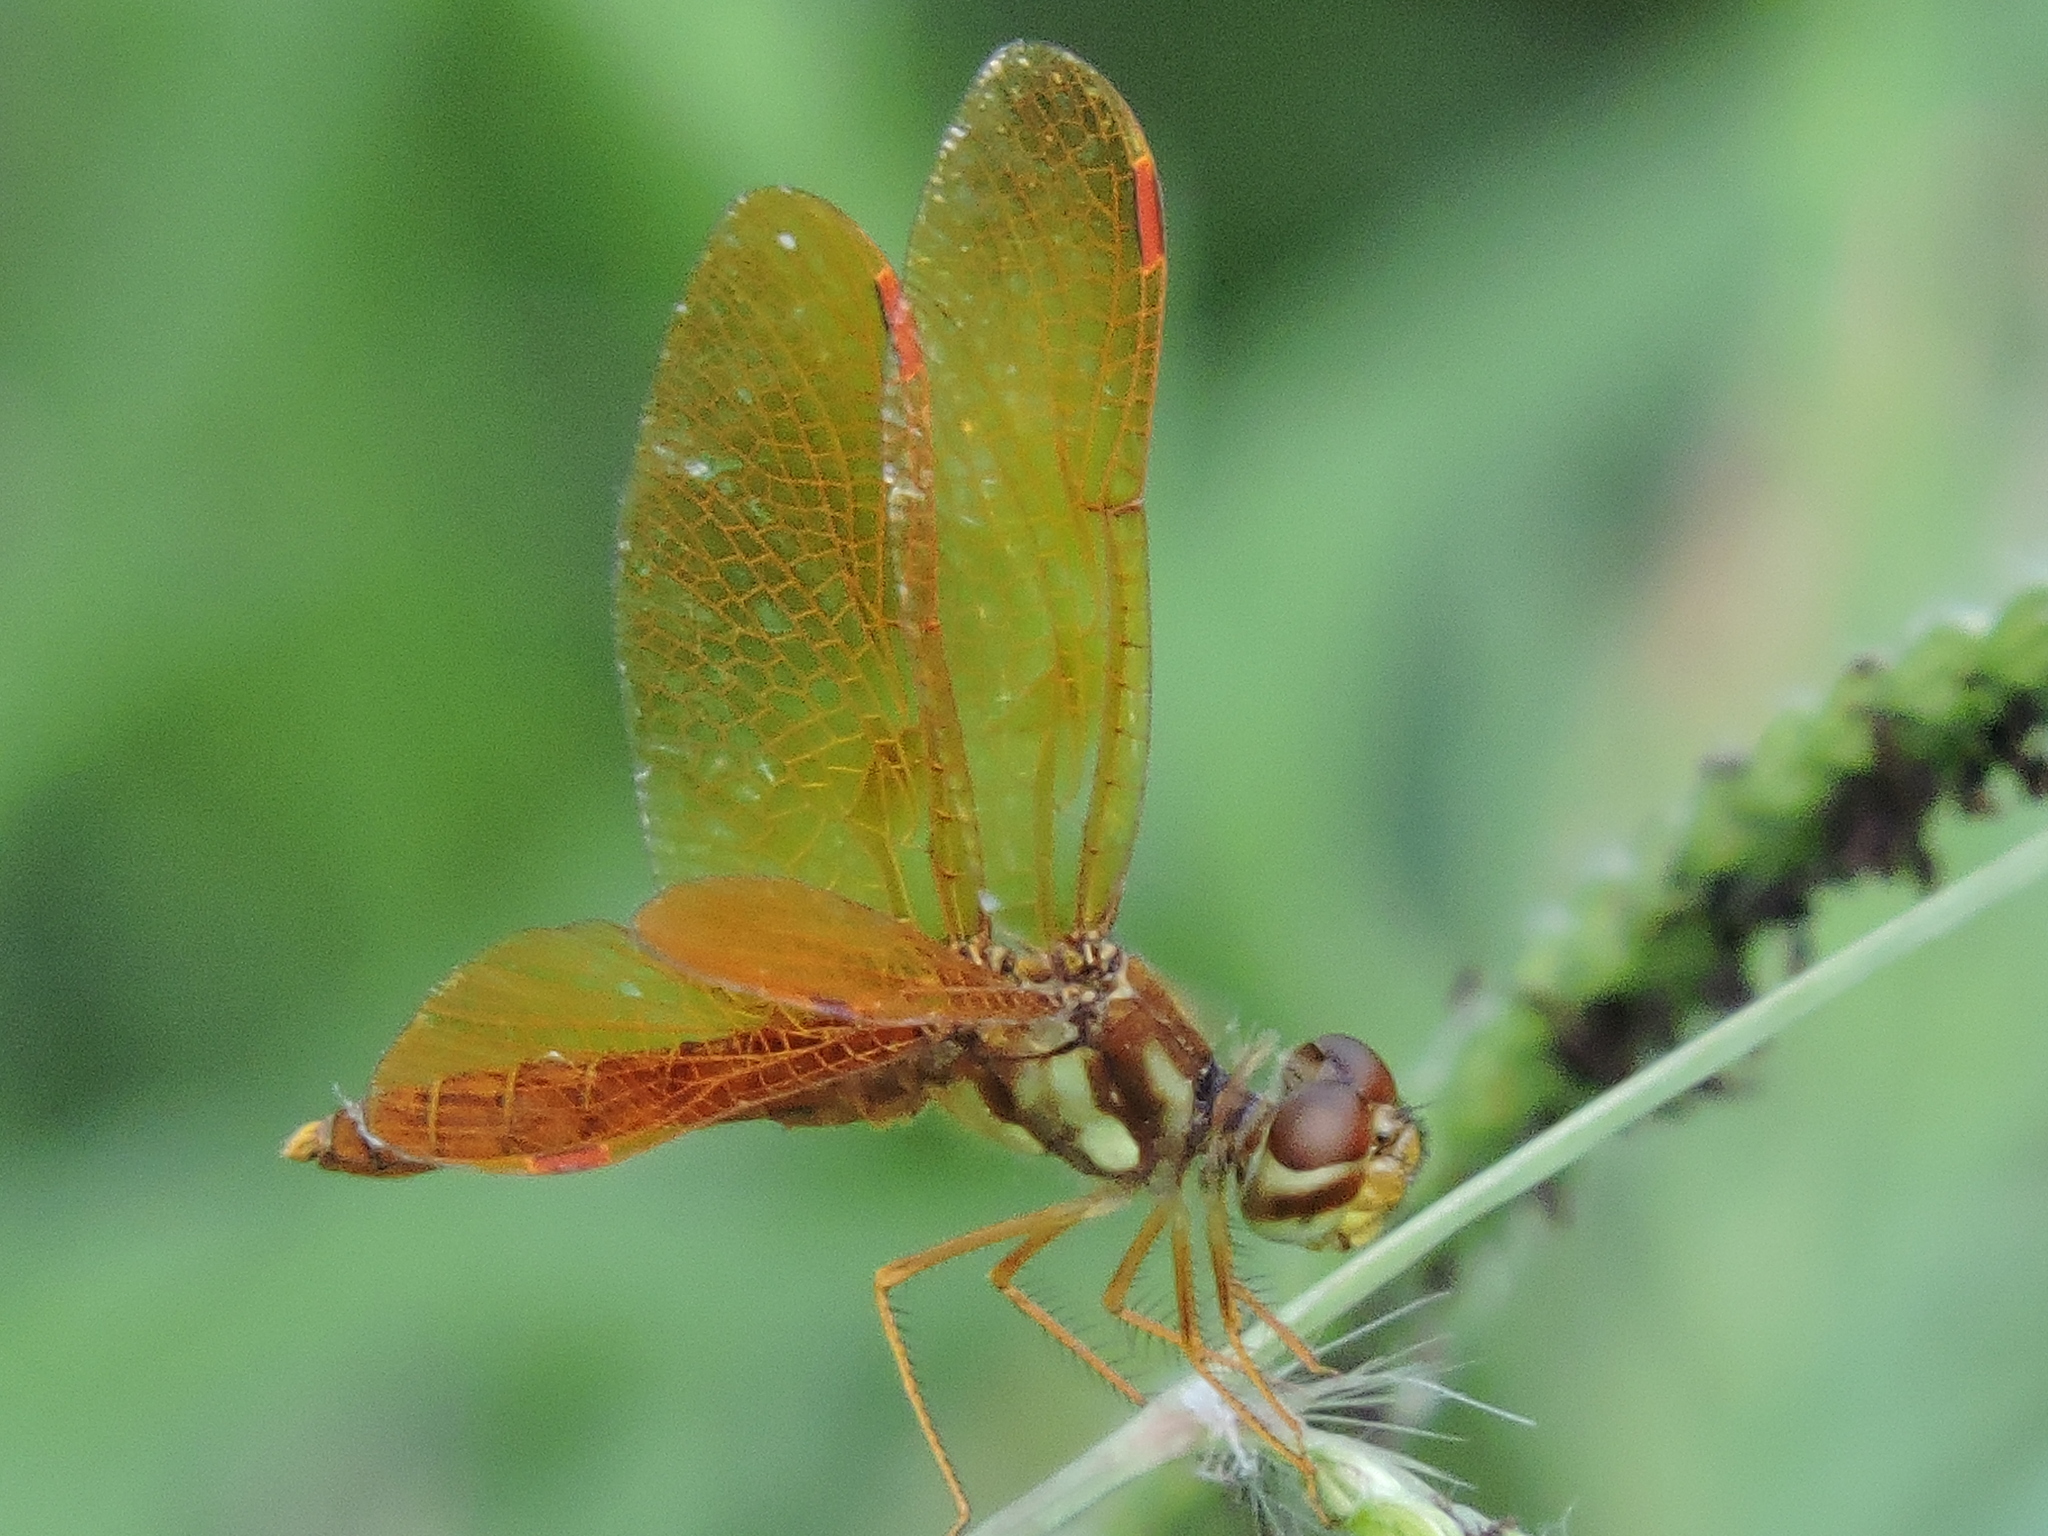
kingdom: Animalia
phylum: Arthropoda
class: Insecta
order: Odonata
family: Libellulidae
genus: Perithemis
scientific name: Perithemis tenera
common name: Eastern amberwing
